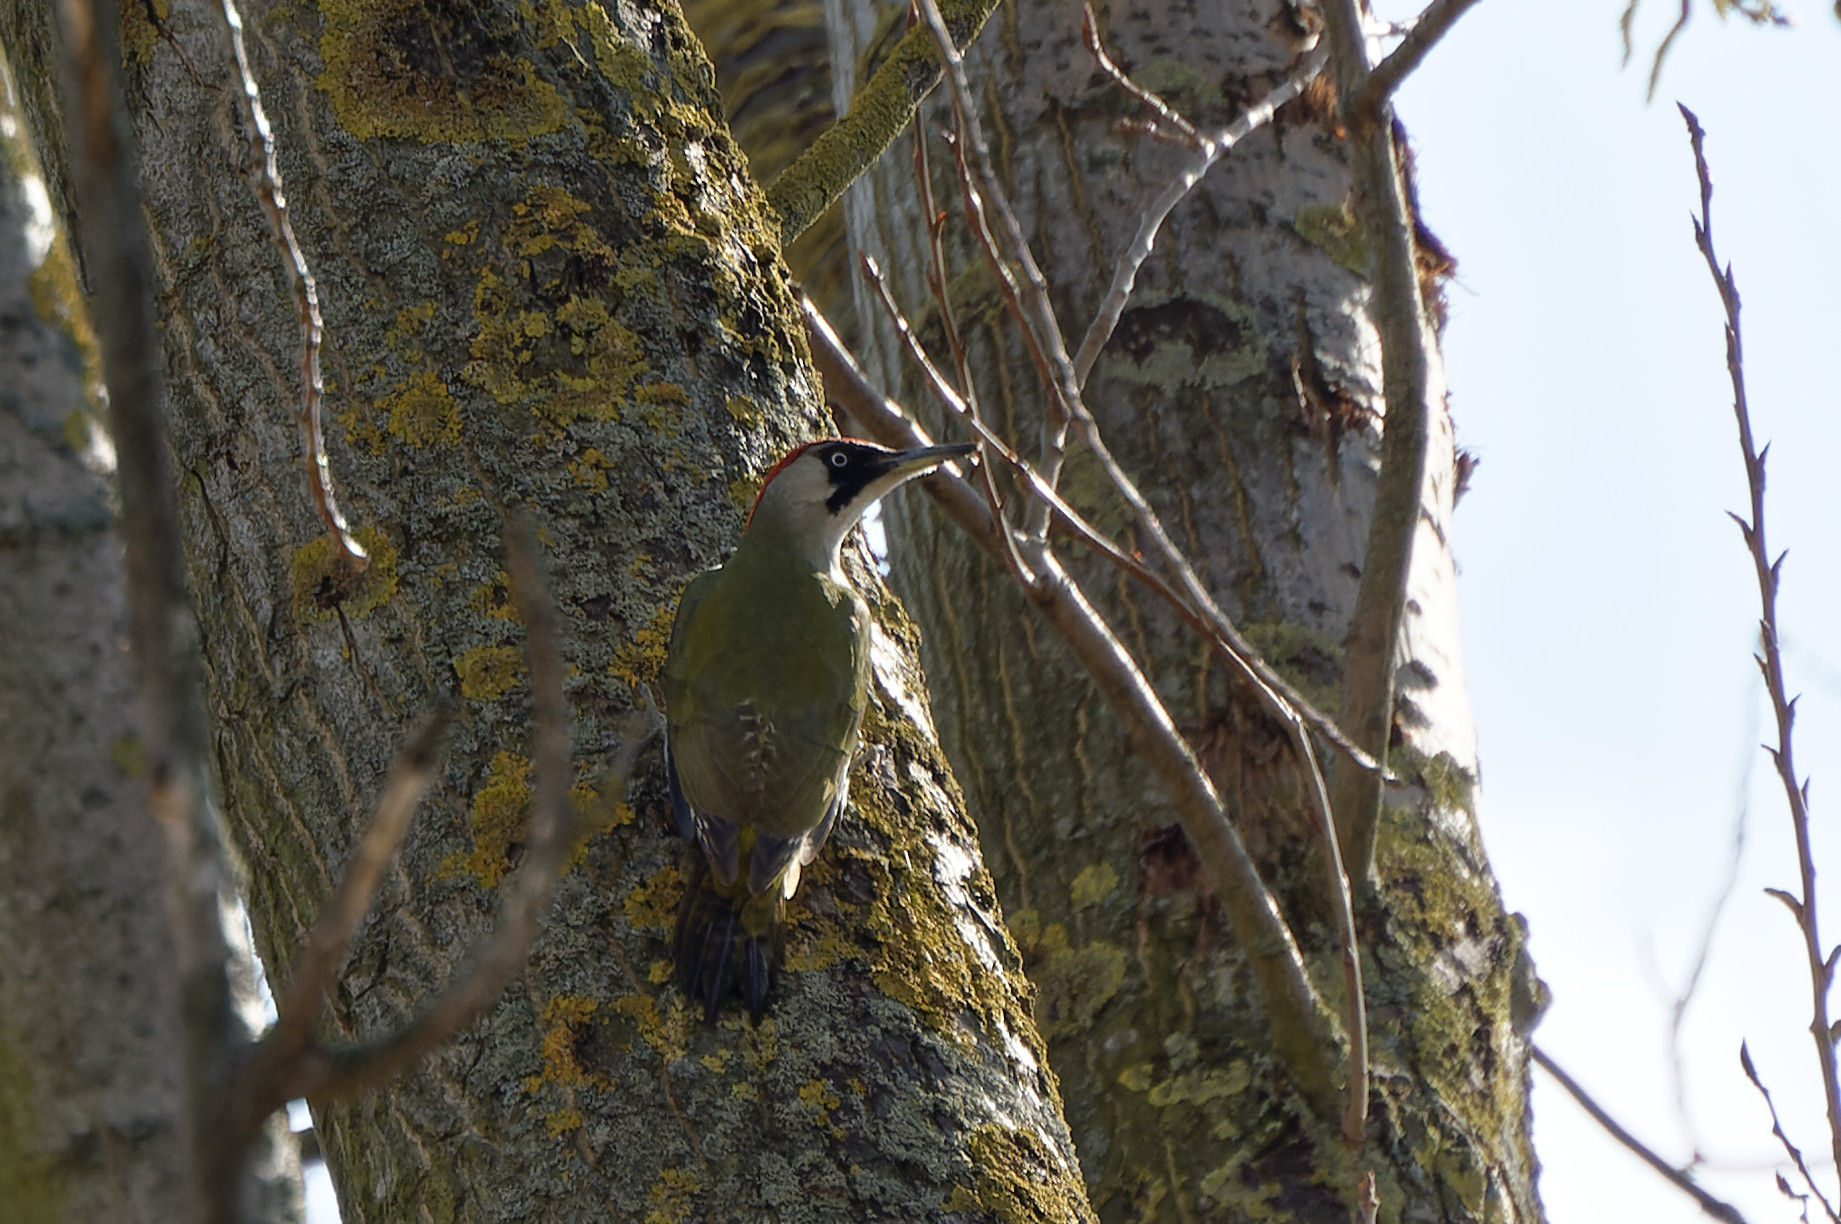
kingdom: Animalia
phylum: Chordata
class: Aves
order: Piciformes
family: Picidae
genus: Picus
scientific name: Picus viridis
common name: European green woodpecker
